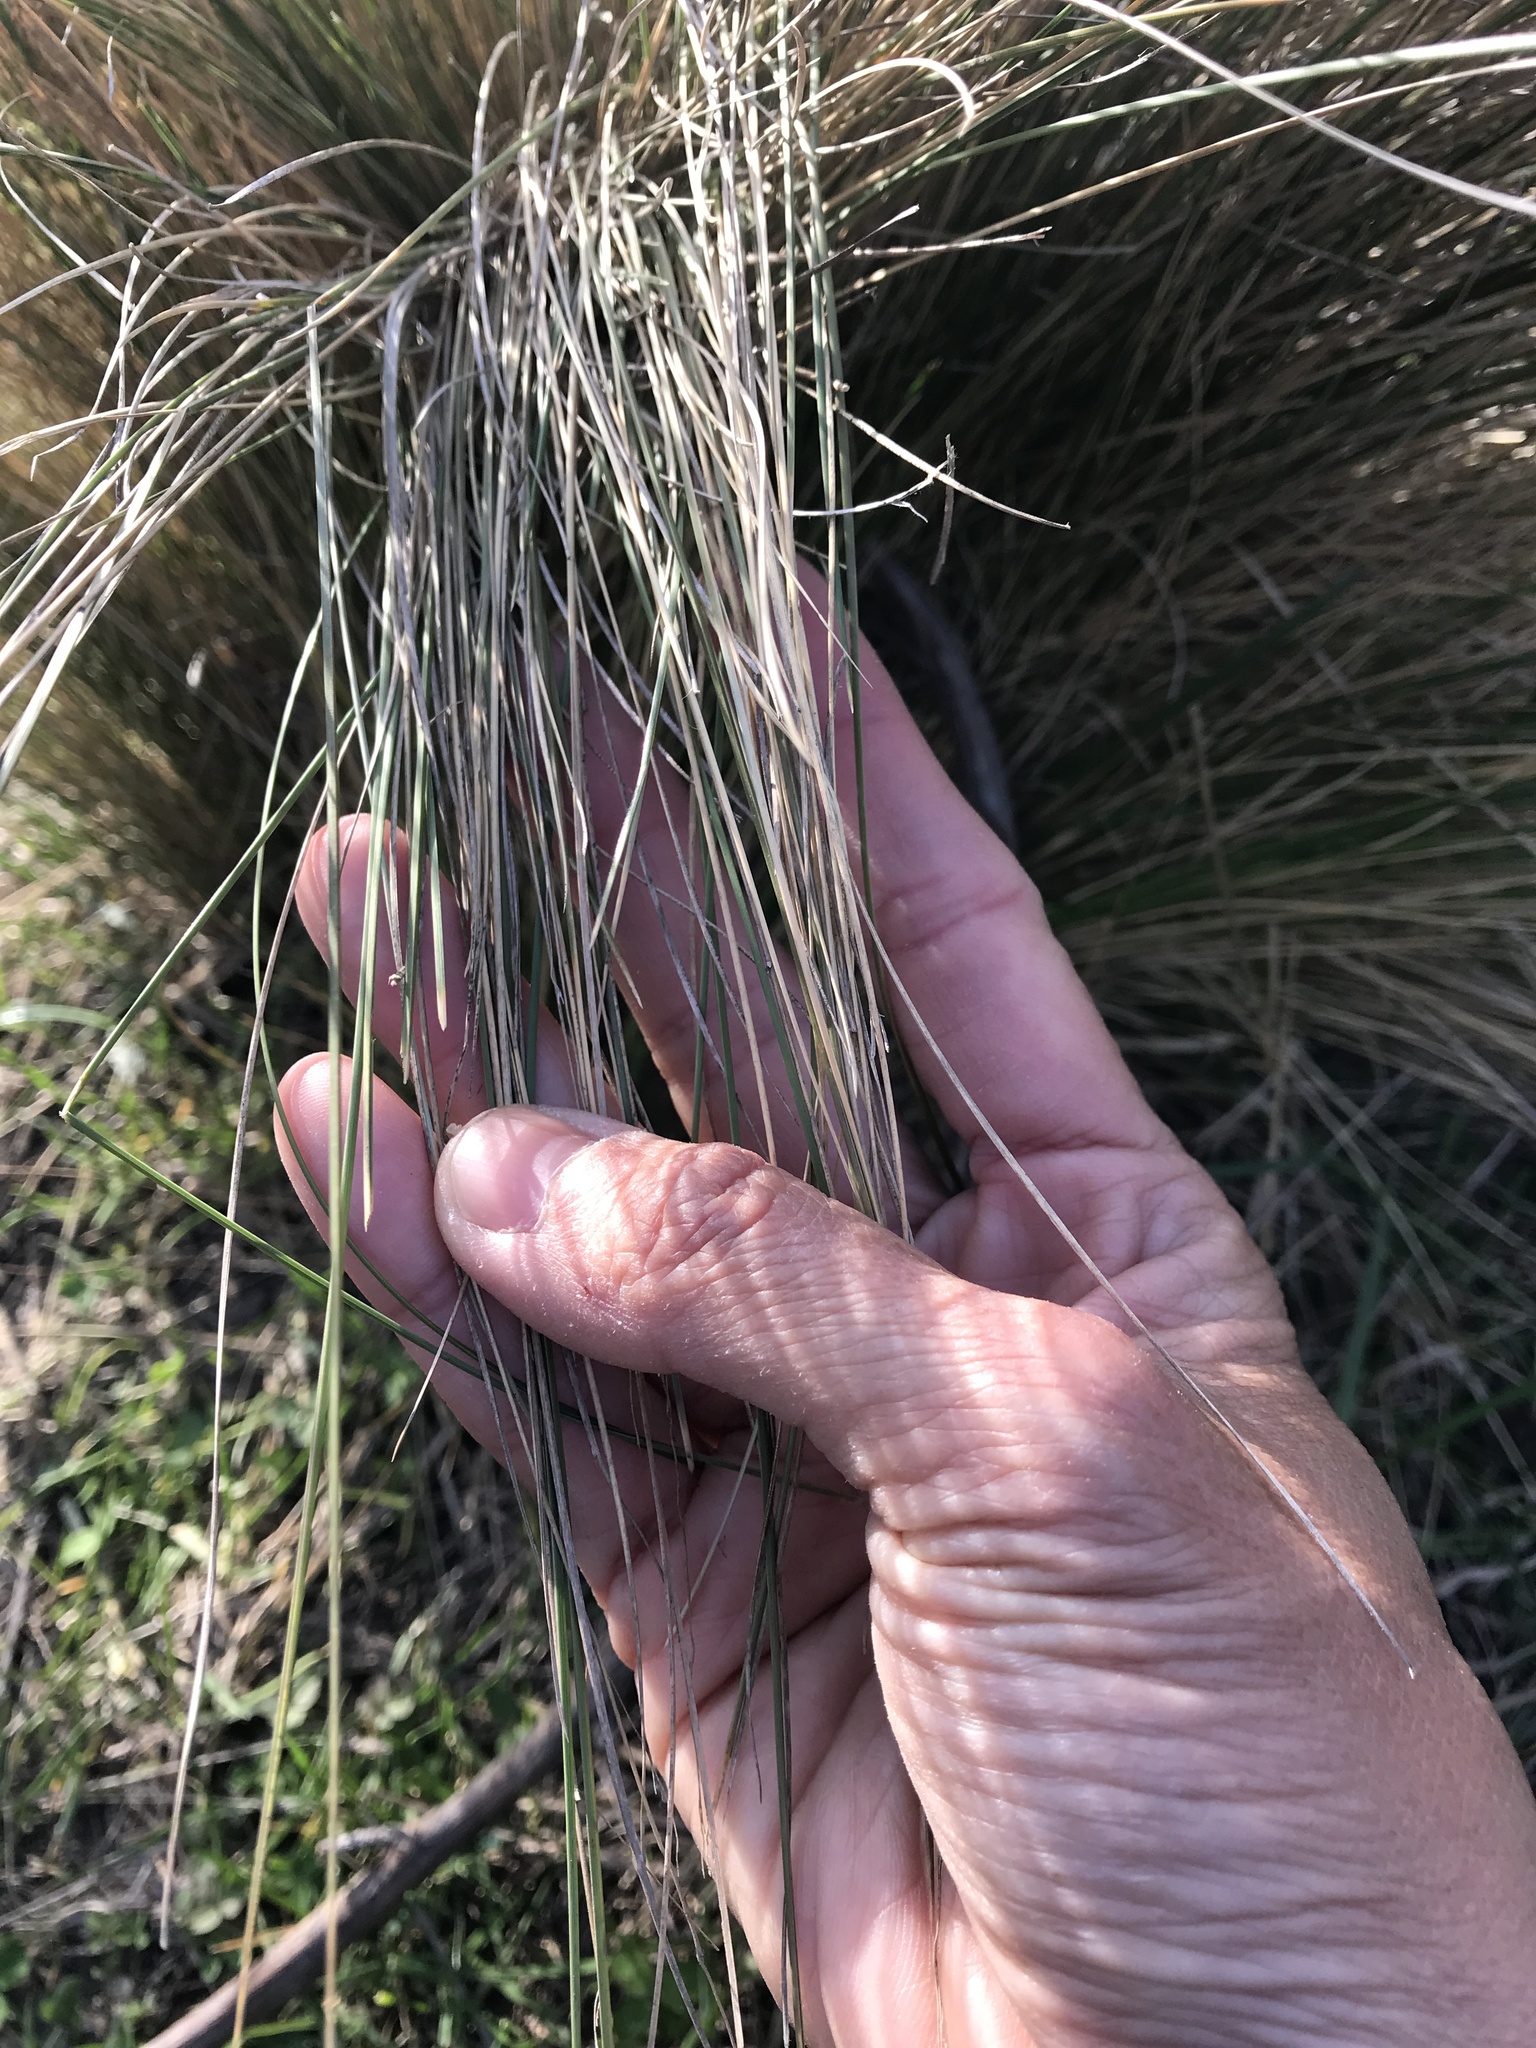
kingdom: Plantae
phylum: Tracheophyta
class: Liliopsida
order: Poales
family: Poaceae
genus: Poa
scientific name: Poa cita
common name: Silver tussock
